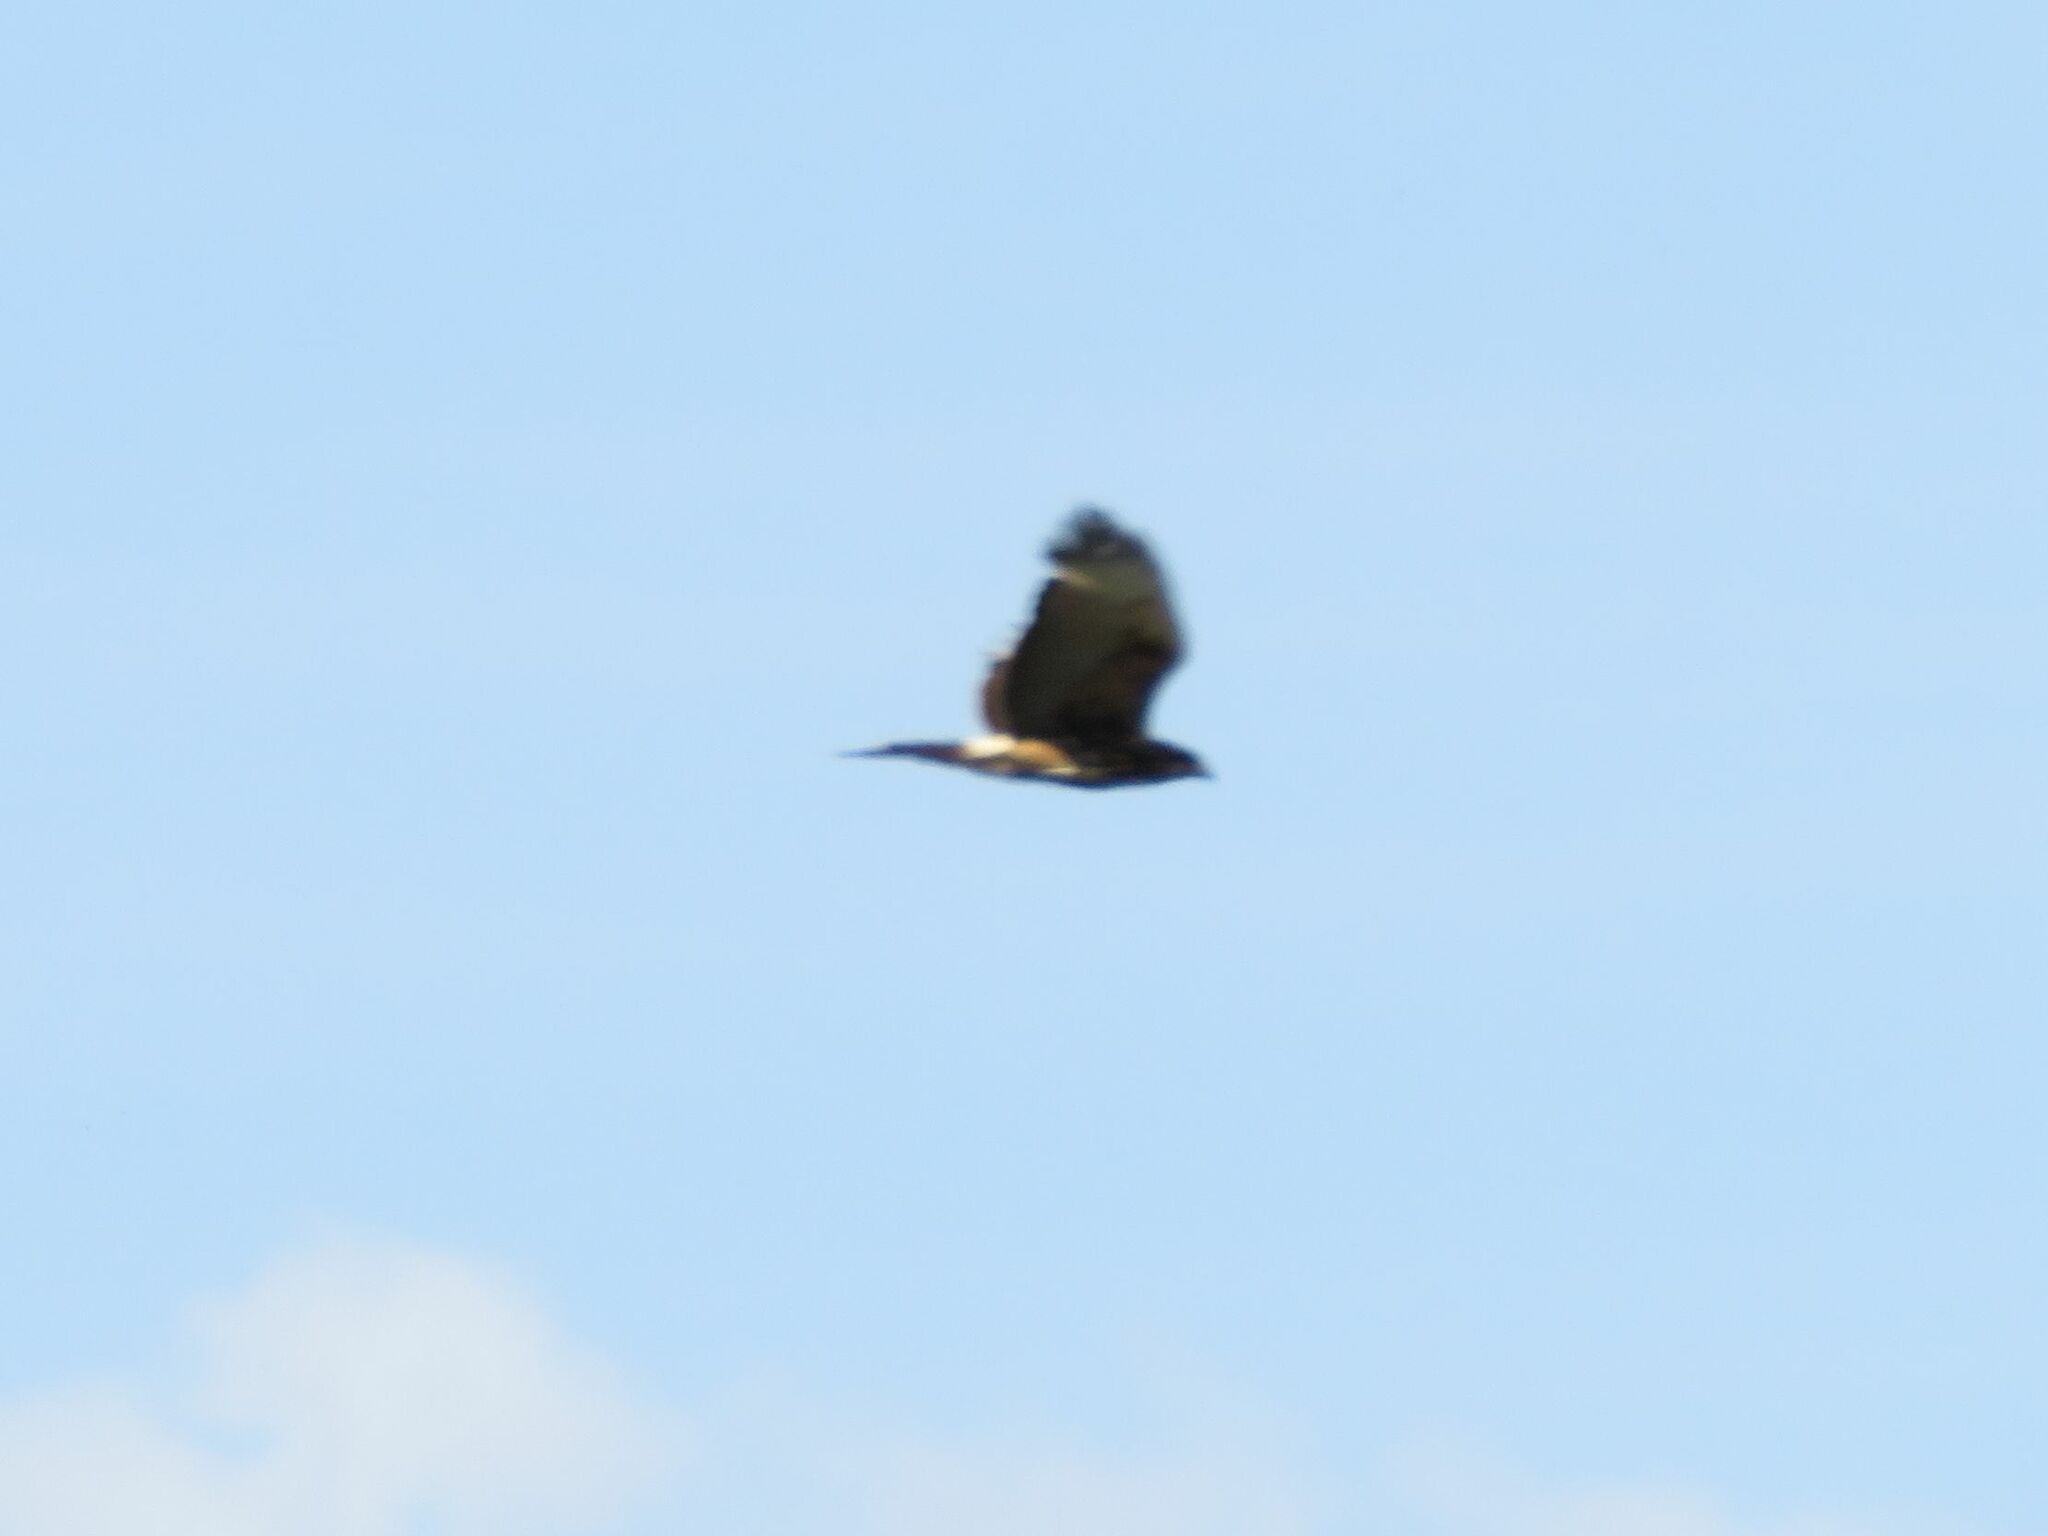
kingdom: Animalia
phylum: Chordata
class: Aves
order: Accipitriformes
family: Accipitridae
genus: Parabuteo
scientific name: Parabuteo unicinctus
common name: Harris's hawk
